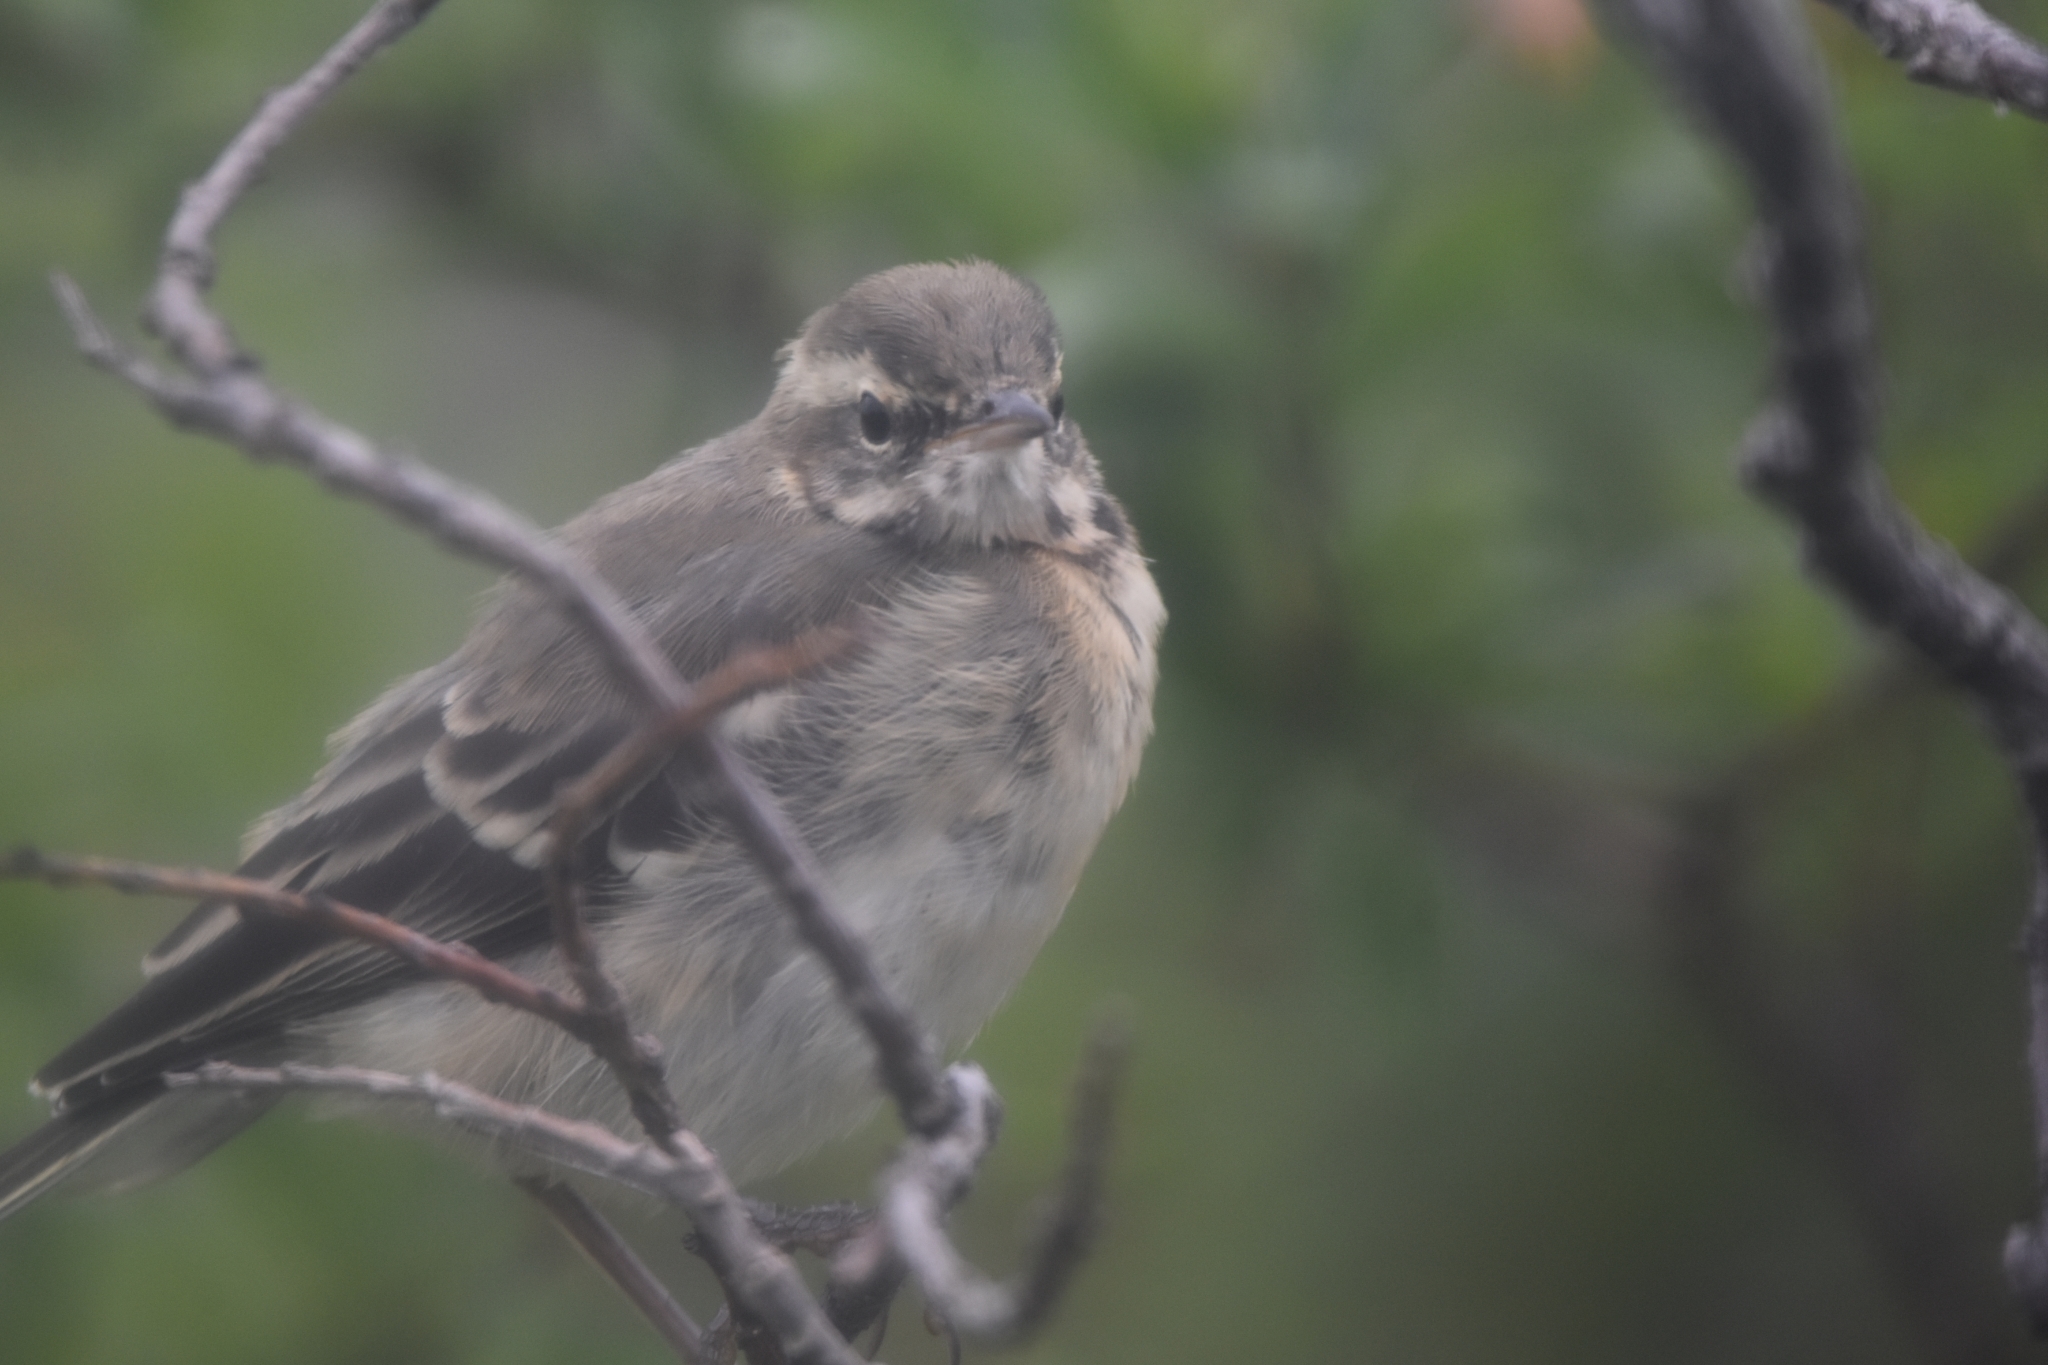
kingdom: Animalia
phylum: Chordata
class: Aves
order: Passeriformes
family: Motacillidae
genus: Motacilla
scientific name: Motacilla tschutschensis
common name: Eastern yellow wagtail
